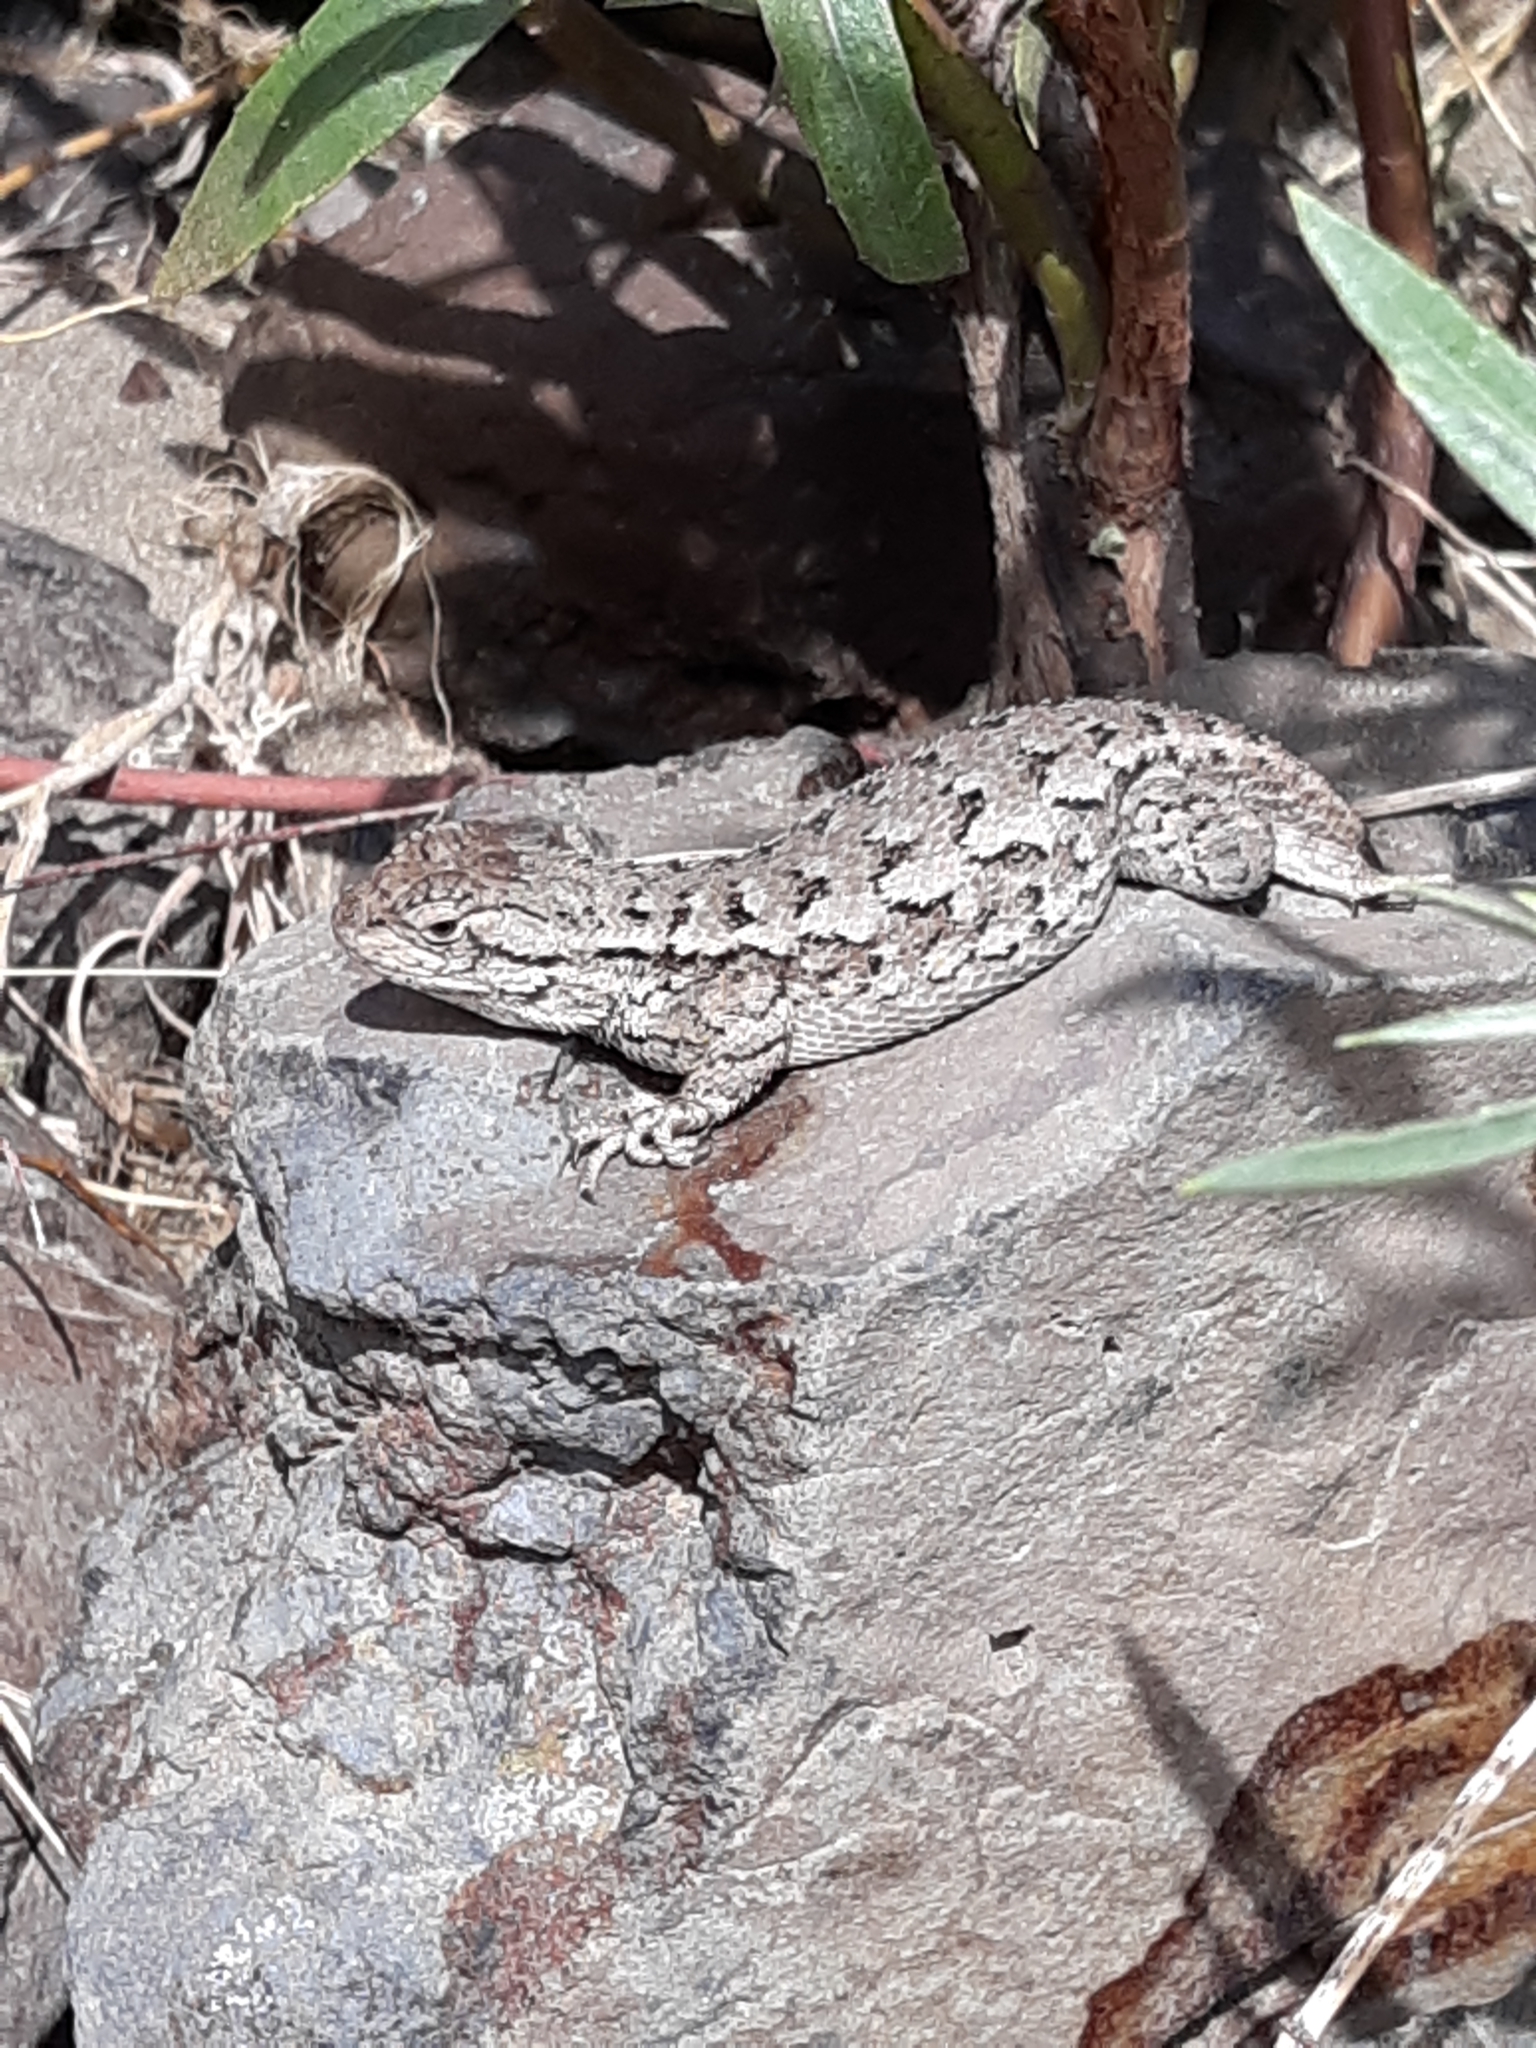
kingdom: Animalia
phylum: Chordata
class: Squamata
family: Phrynosomatidae
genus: Sceloporus
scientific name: Sceloporus occidentalis
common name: Western fence lizard
